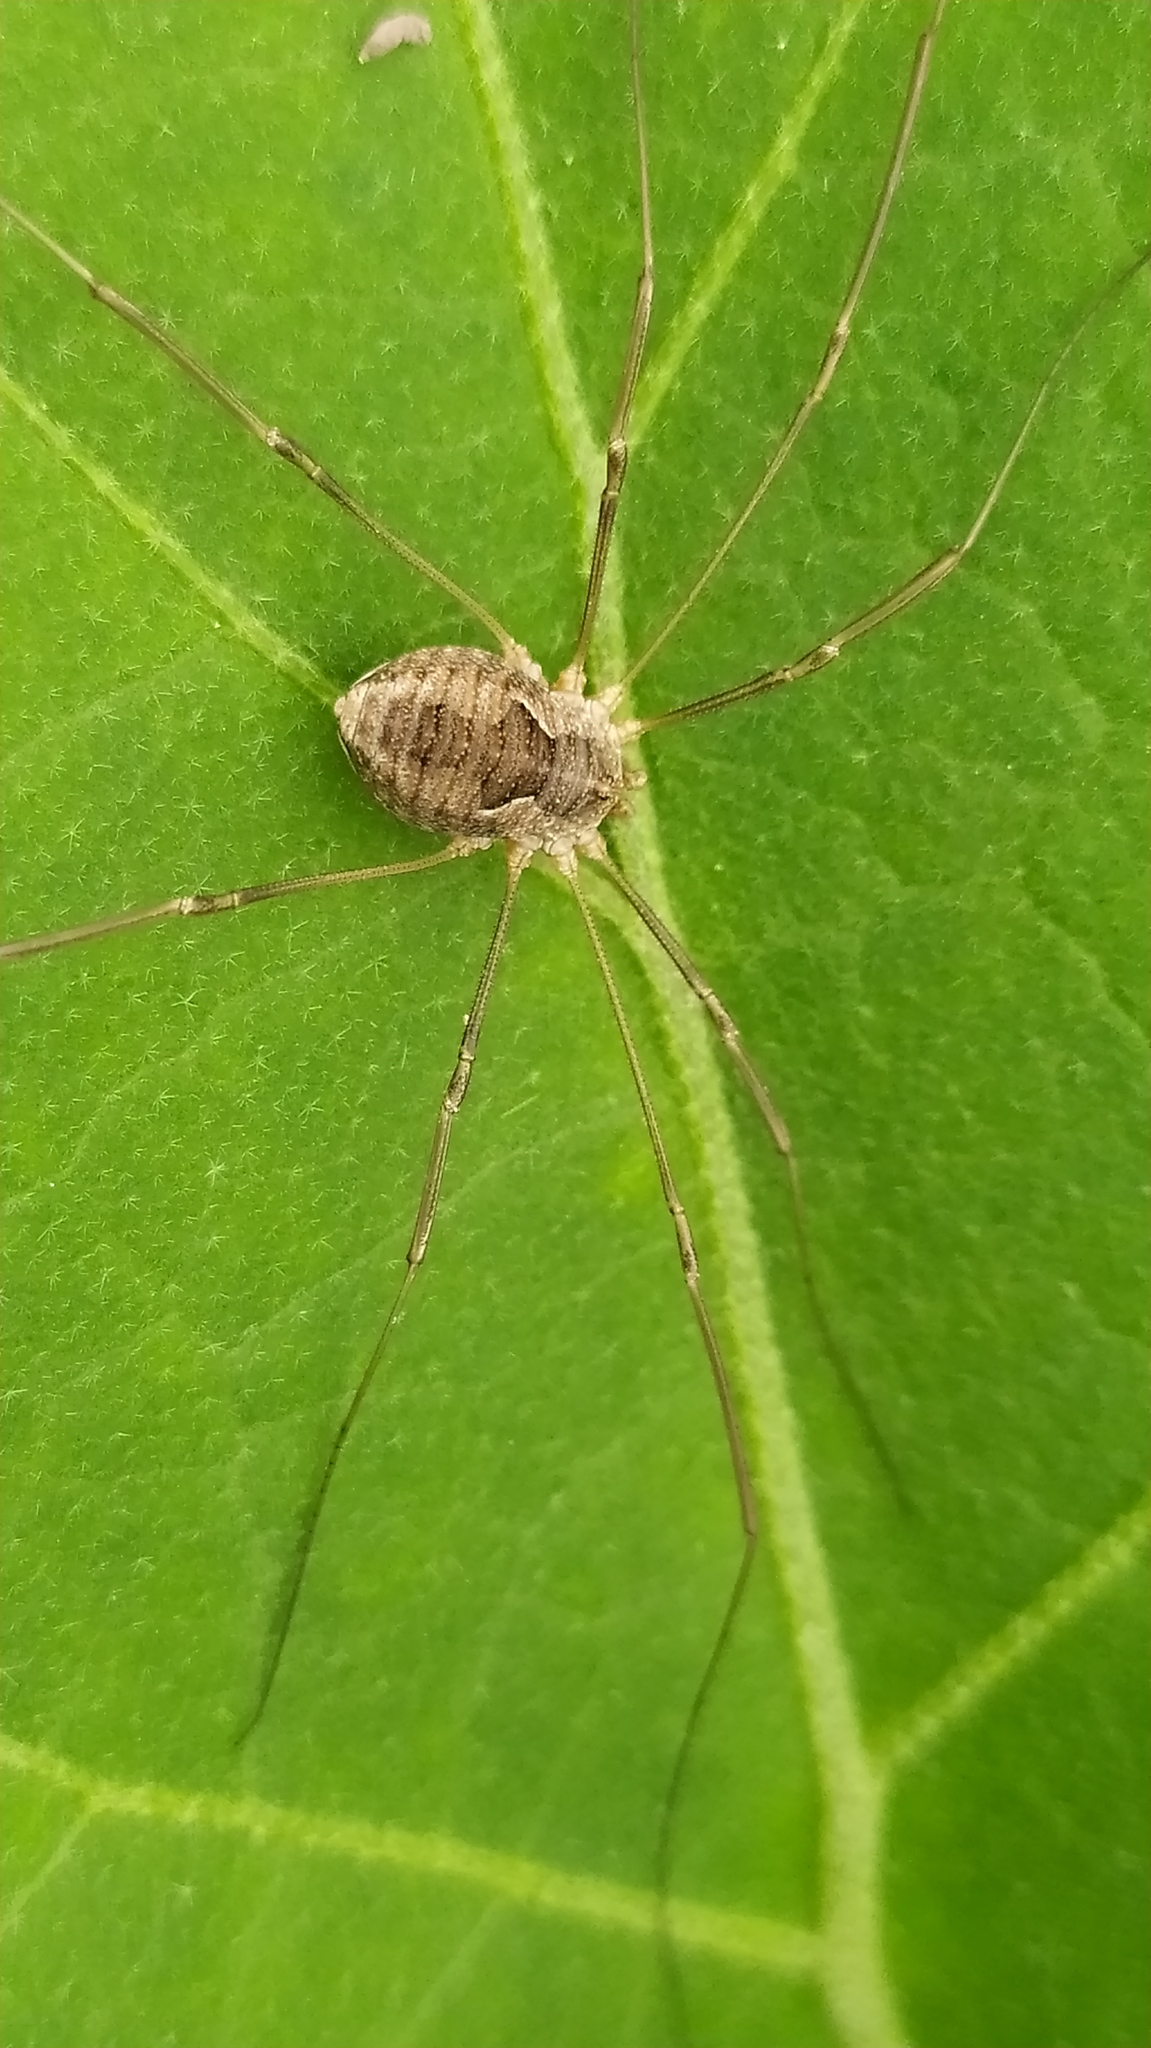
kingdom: Animalia
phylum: Arthropoda
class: Arachnida
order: Opiliones
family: Phalangiidae
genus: Phalangium
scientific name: Phalangium opilio
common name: Daddy longleg
